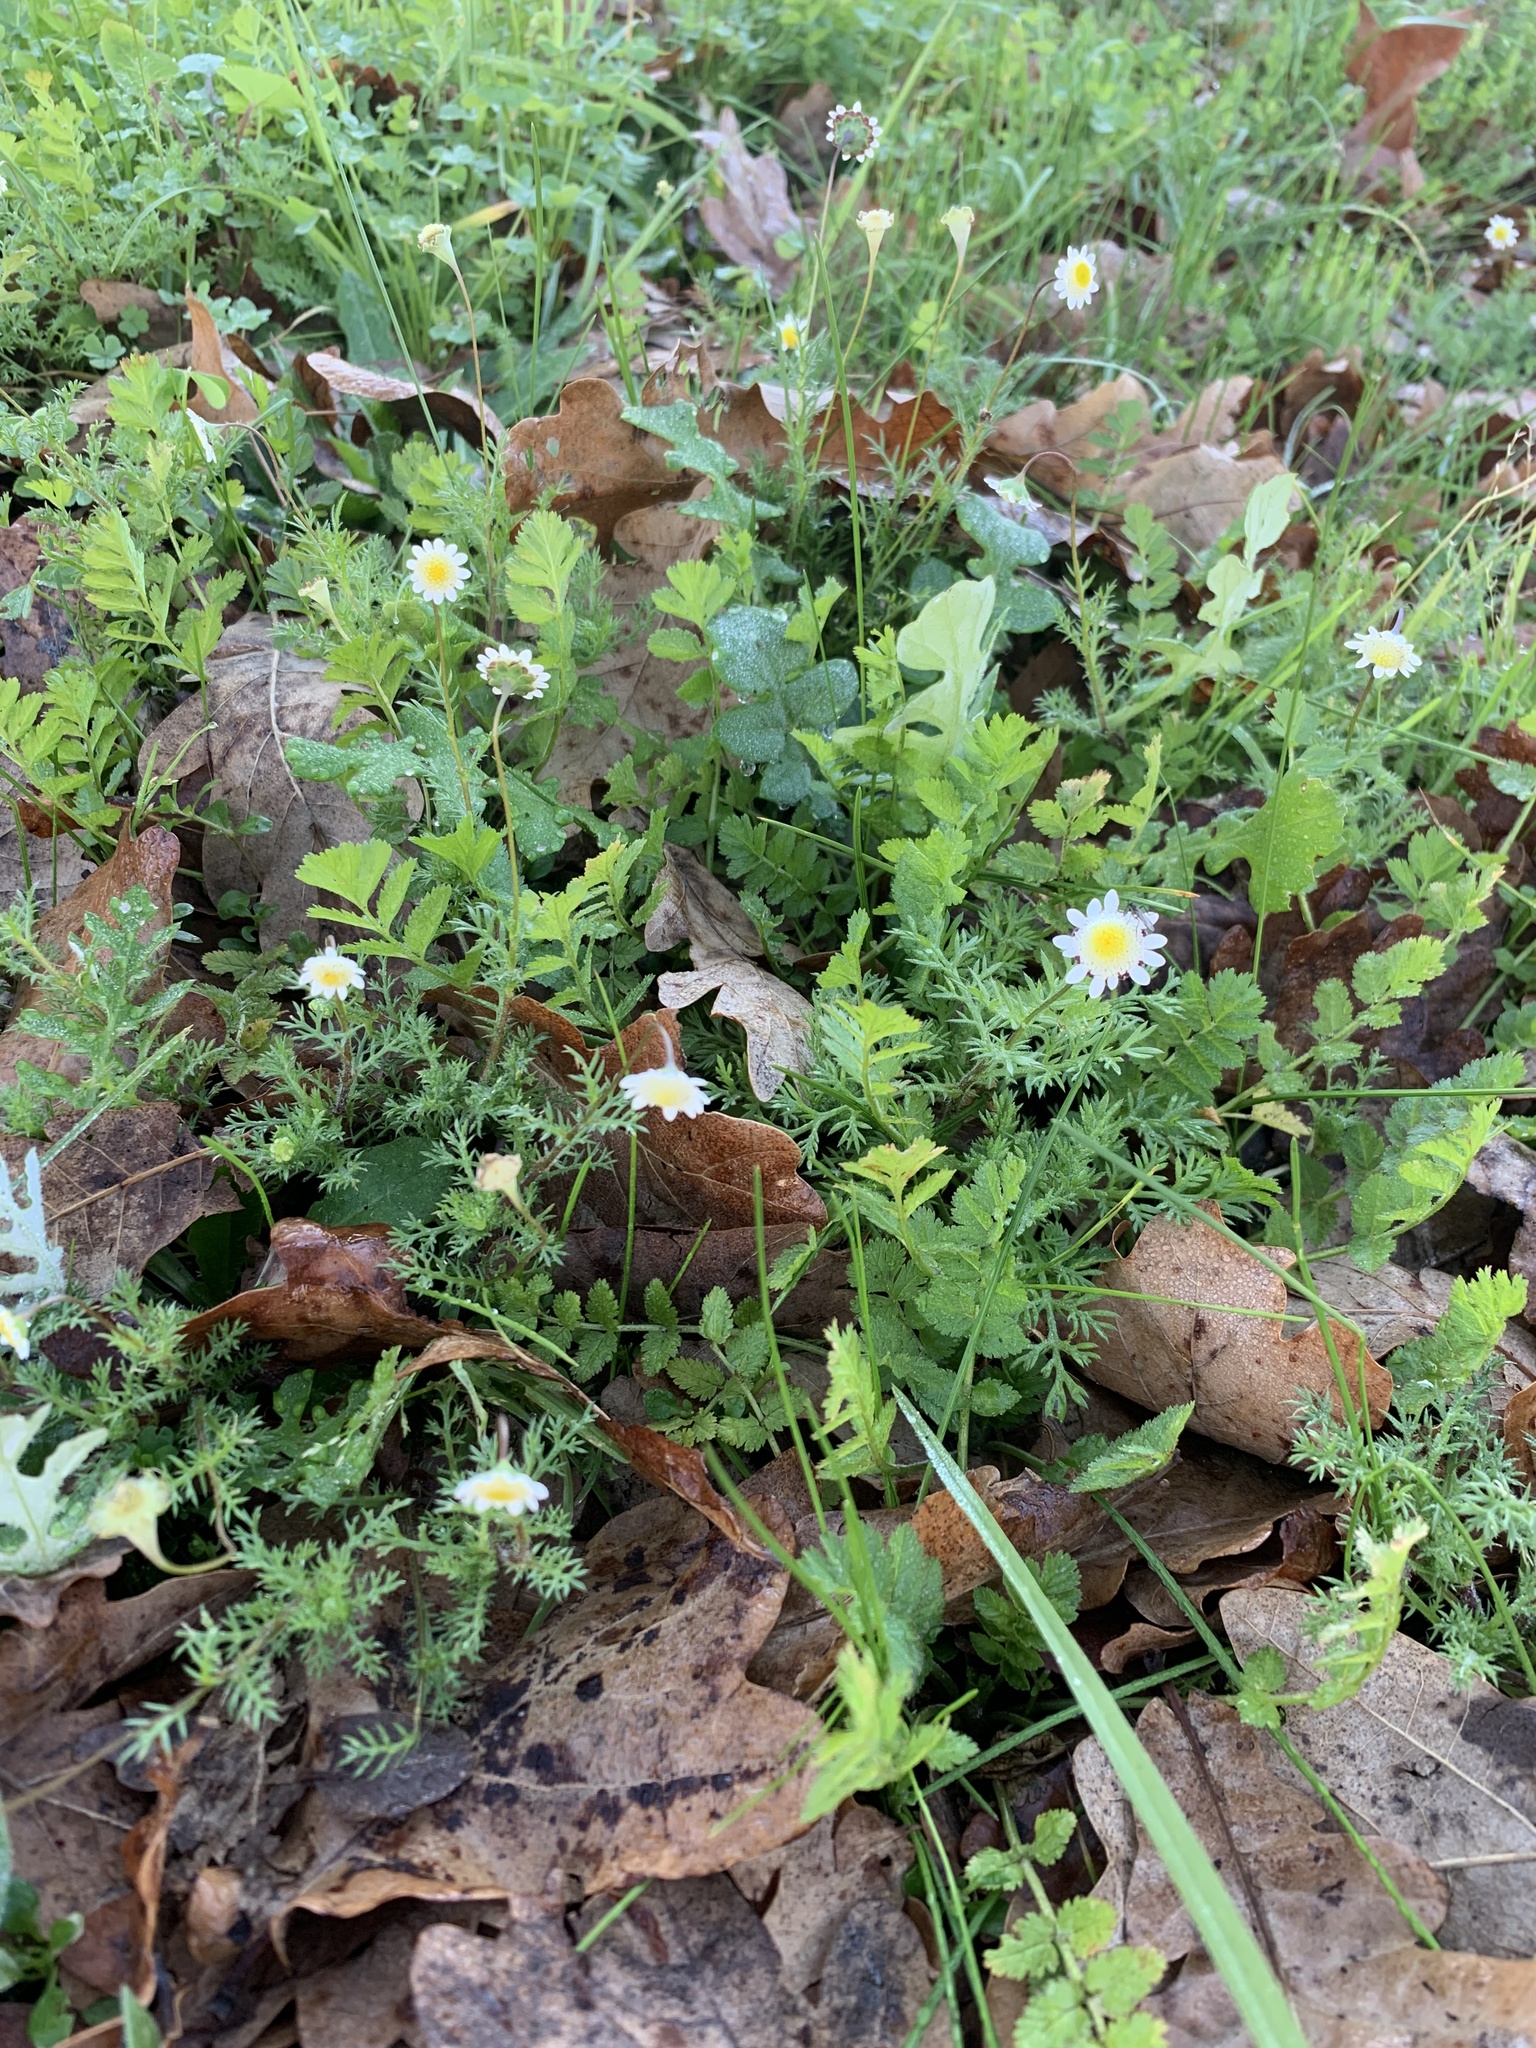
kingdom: Plantae
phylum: Tracheophyta
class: Magnoliopsida
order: Asterales
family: Asteraceae
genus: Cotula
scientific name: Cotula turbinata
